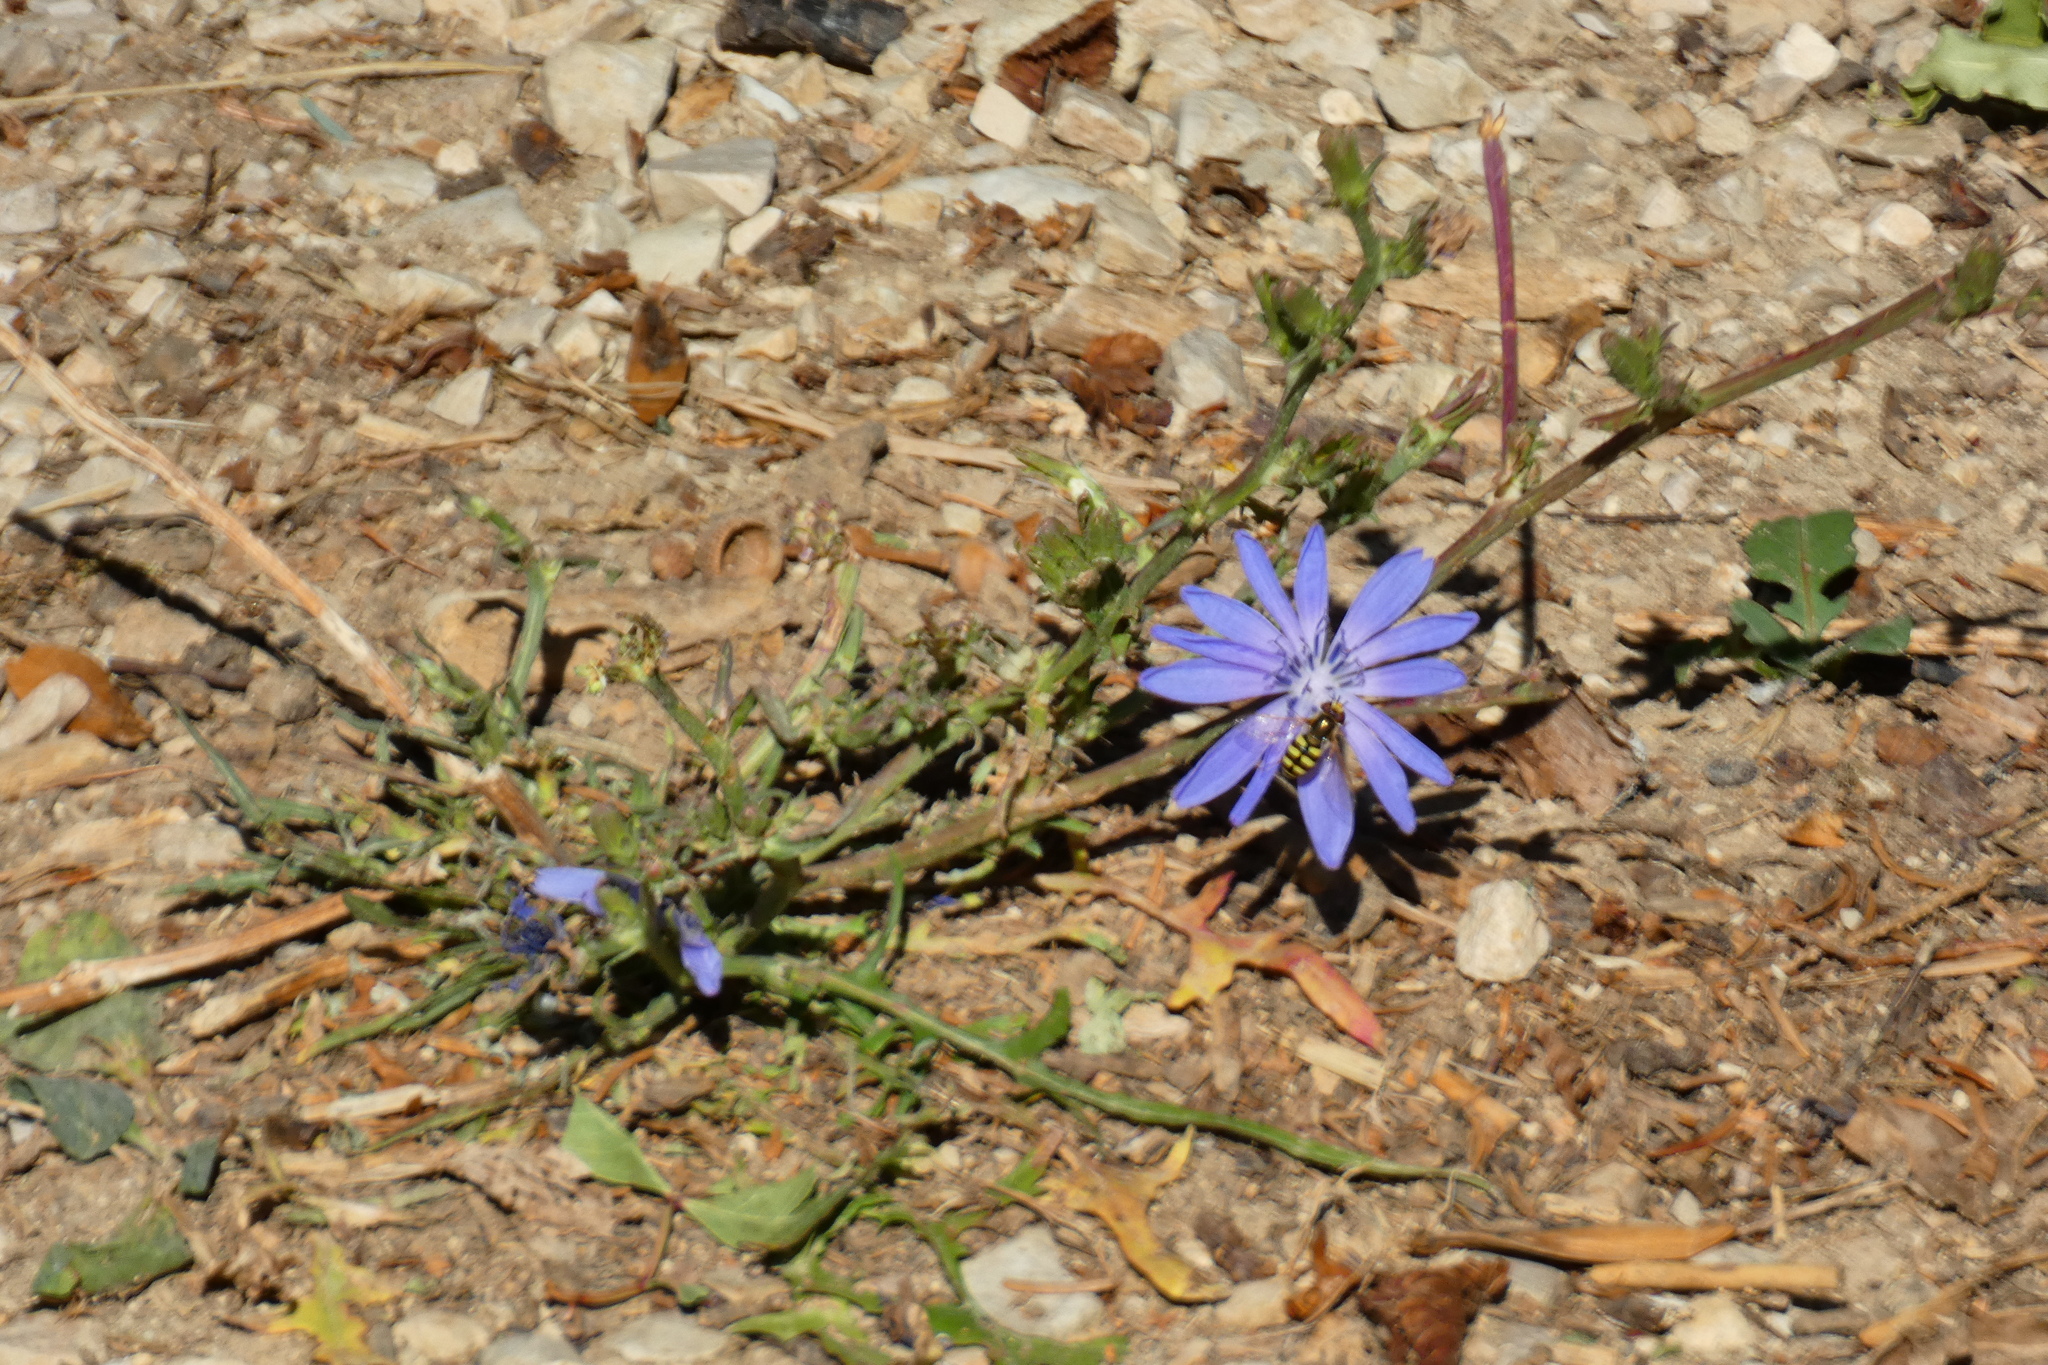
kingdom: Plantae
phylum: Tracheophyta
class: Magnoliopsida
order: Asterales
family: Asteraceae
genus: Cichorium
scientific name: Cichorium intybus
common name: Chicory
